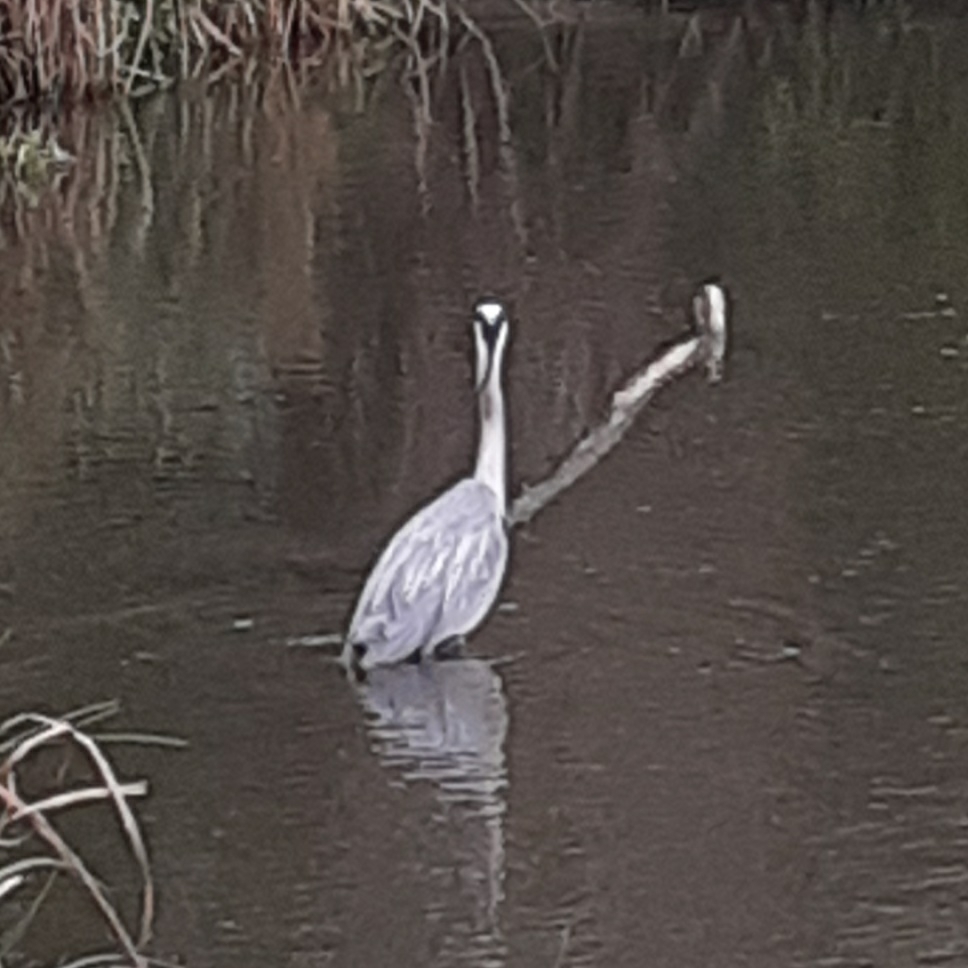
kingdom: Animalia
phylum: Chordata
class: Aves
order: Pelecaniformes
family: Ardeidae
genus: Ardea
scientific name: Ardea cinerea
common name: Grey heron
